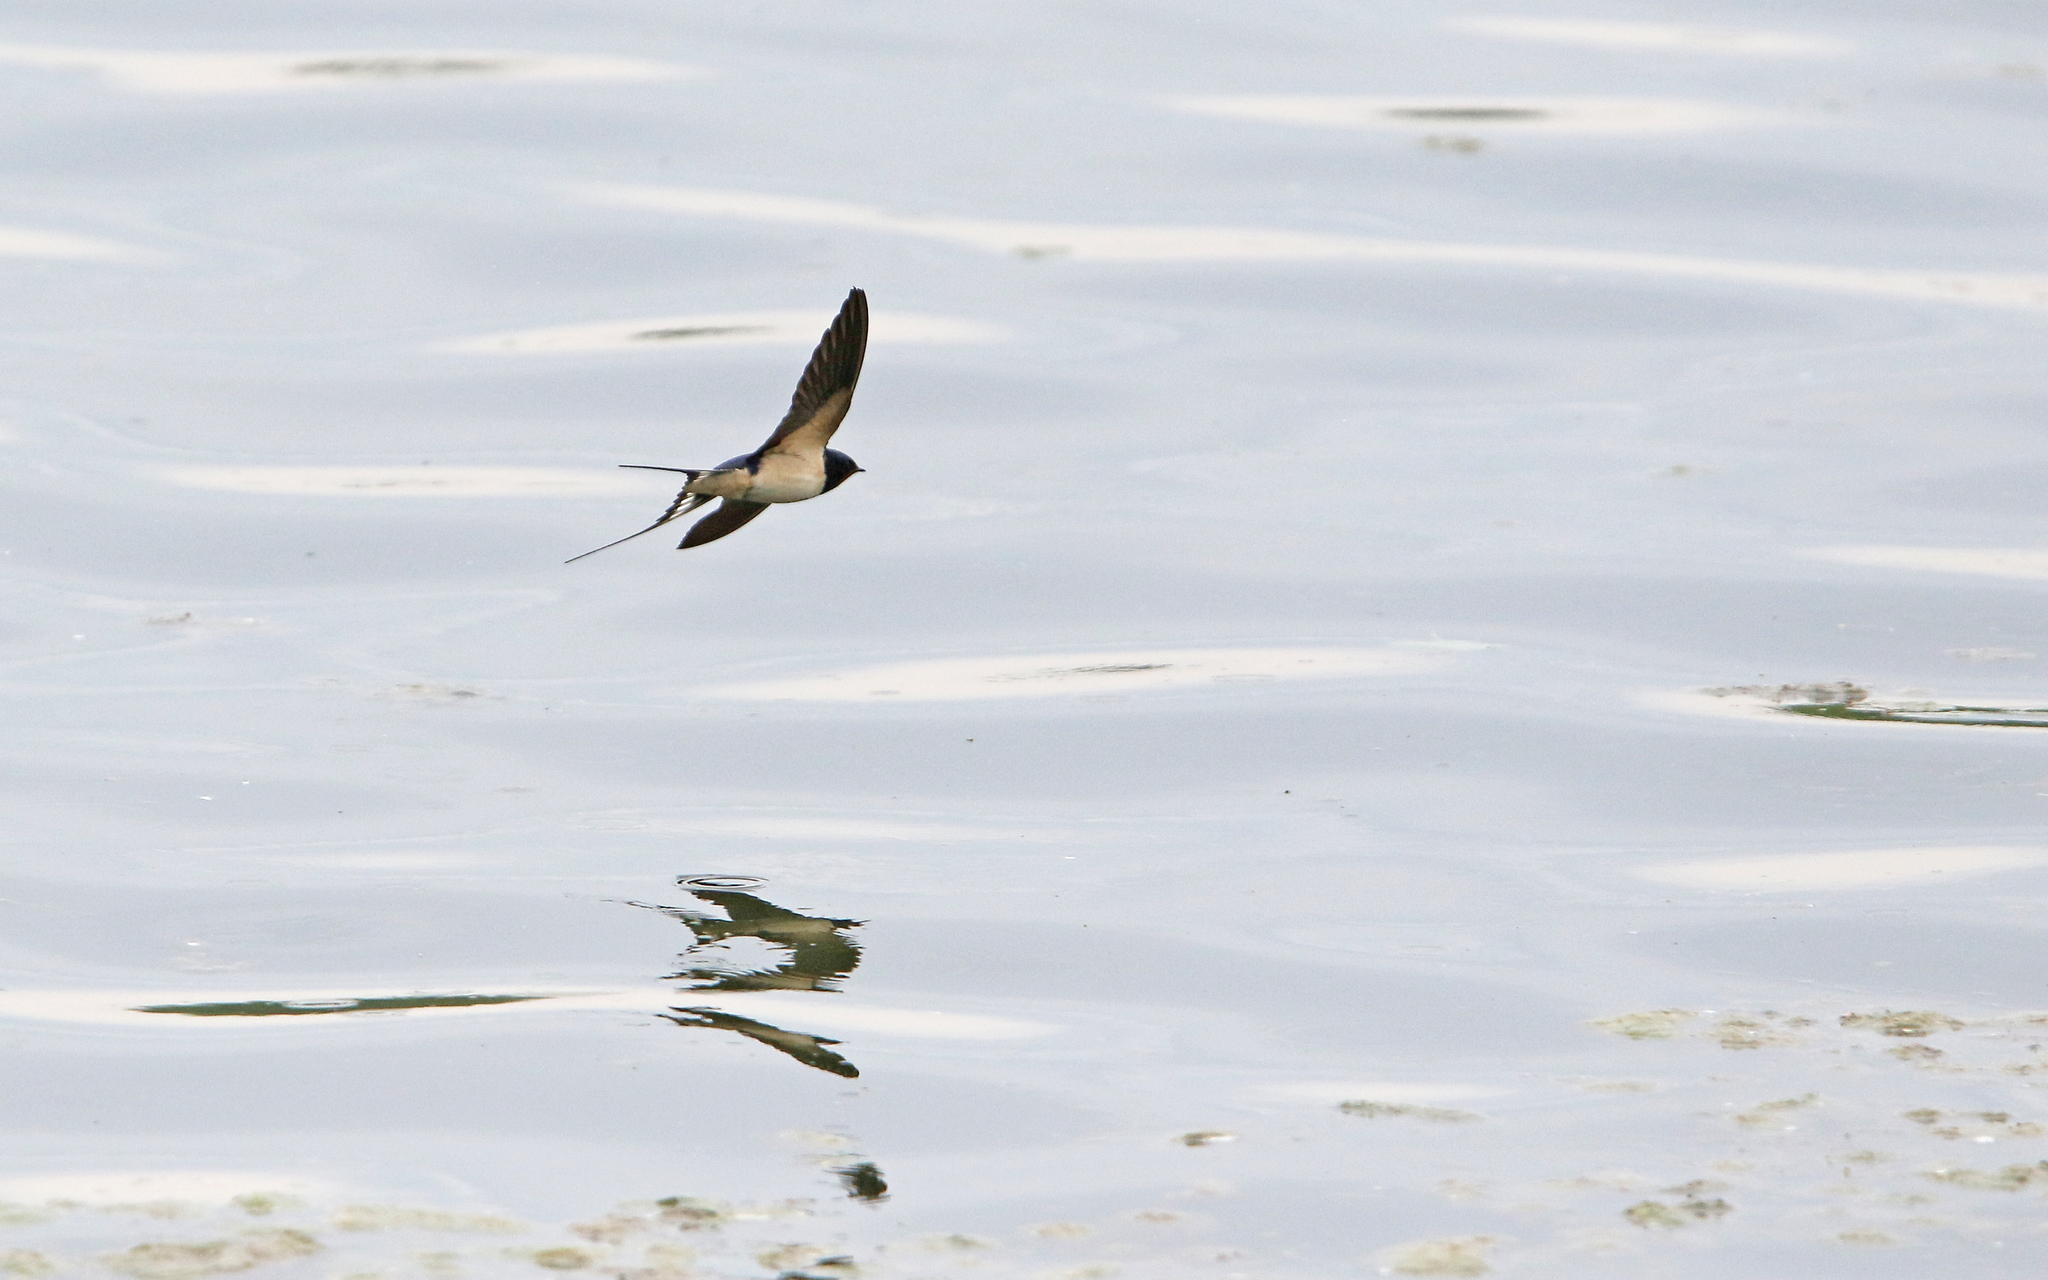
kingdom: Animalia
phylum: Chordata
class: Aves
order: Passeriformes
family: Hirundinidae
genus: Hirundo
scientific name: Hirundo rustica
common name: Barn swallow
